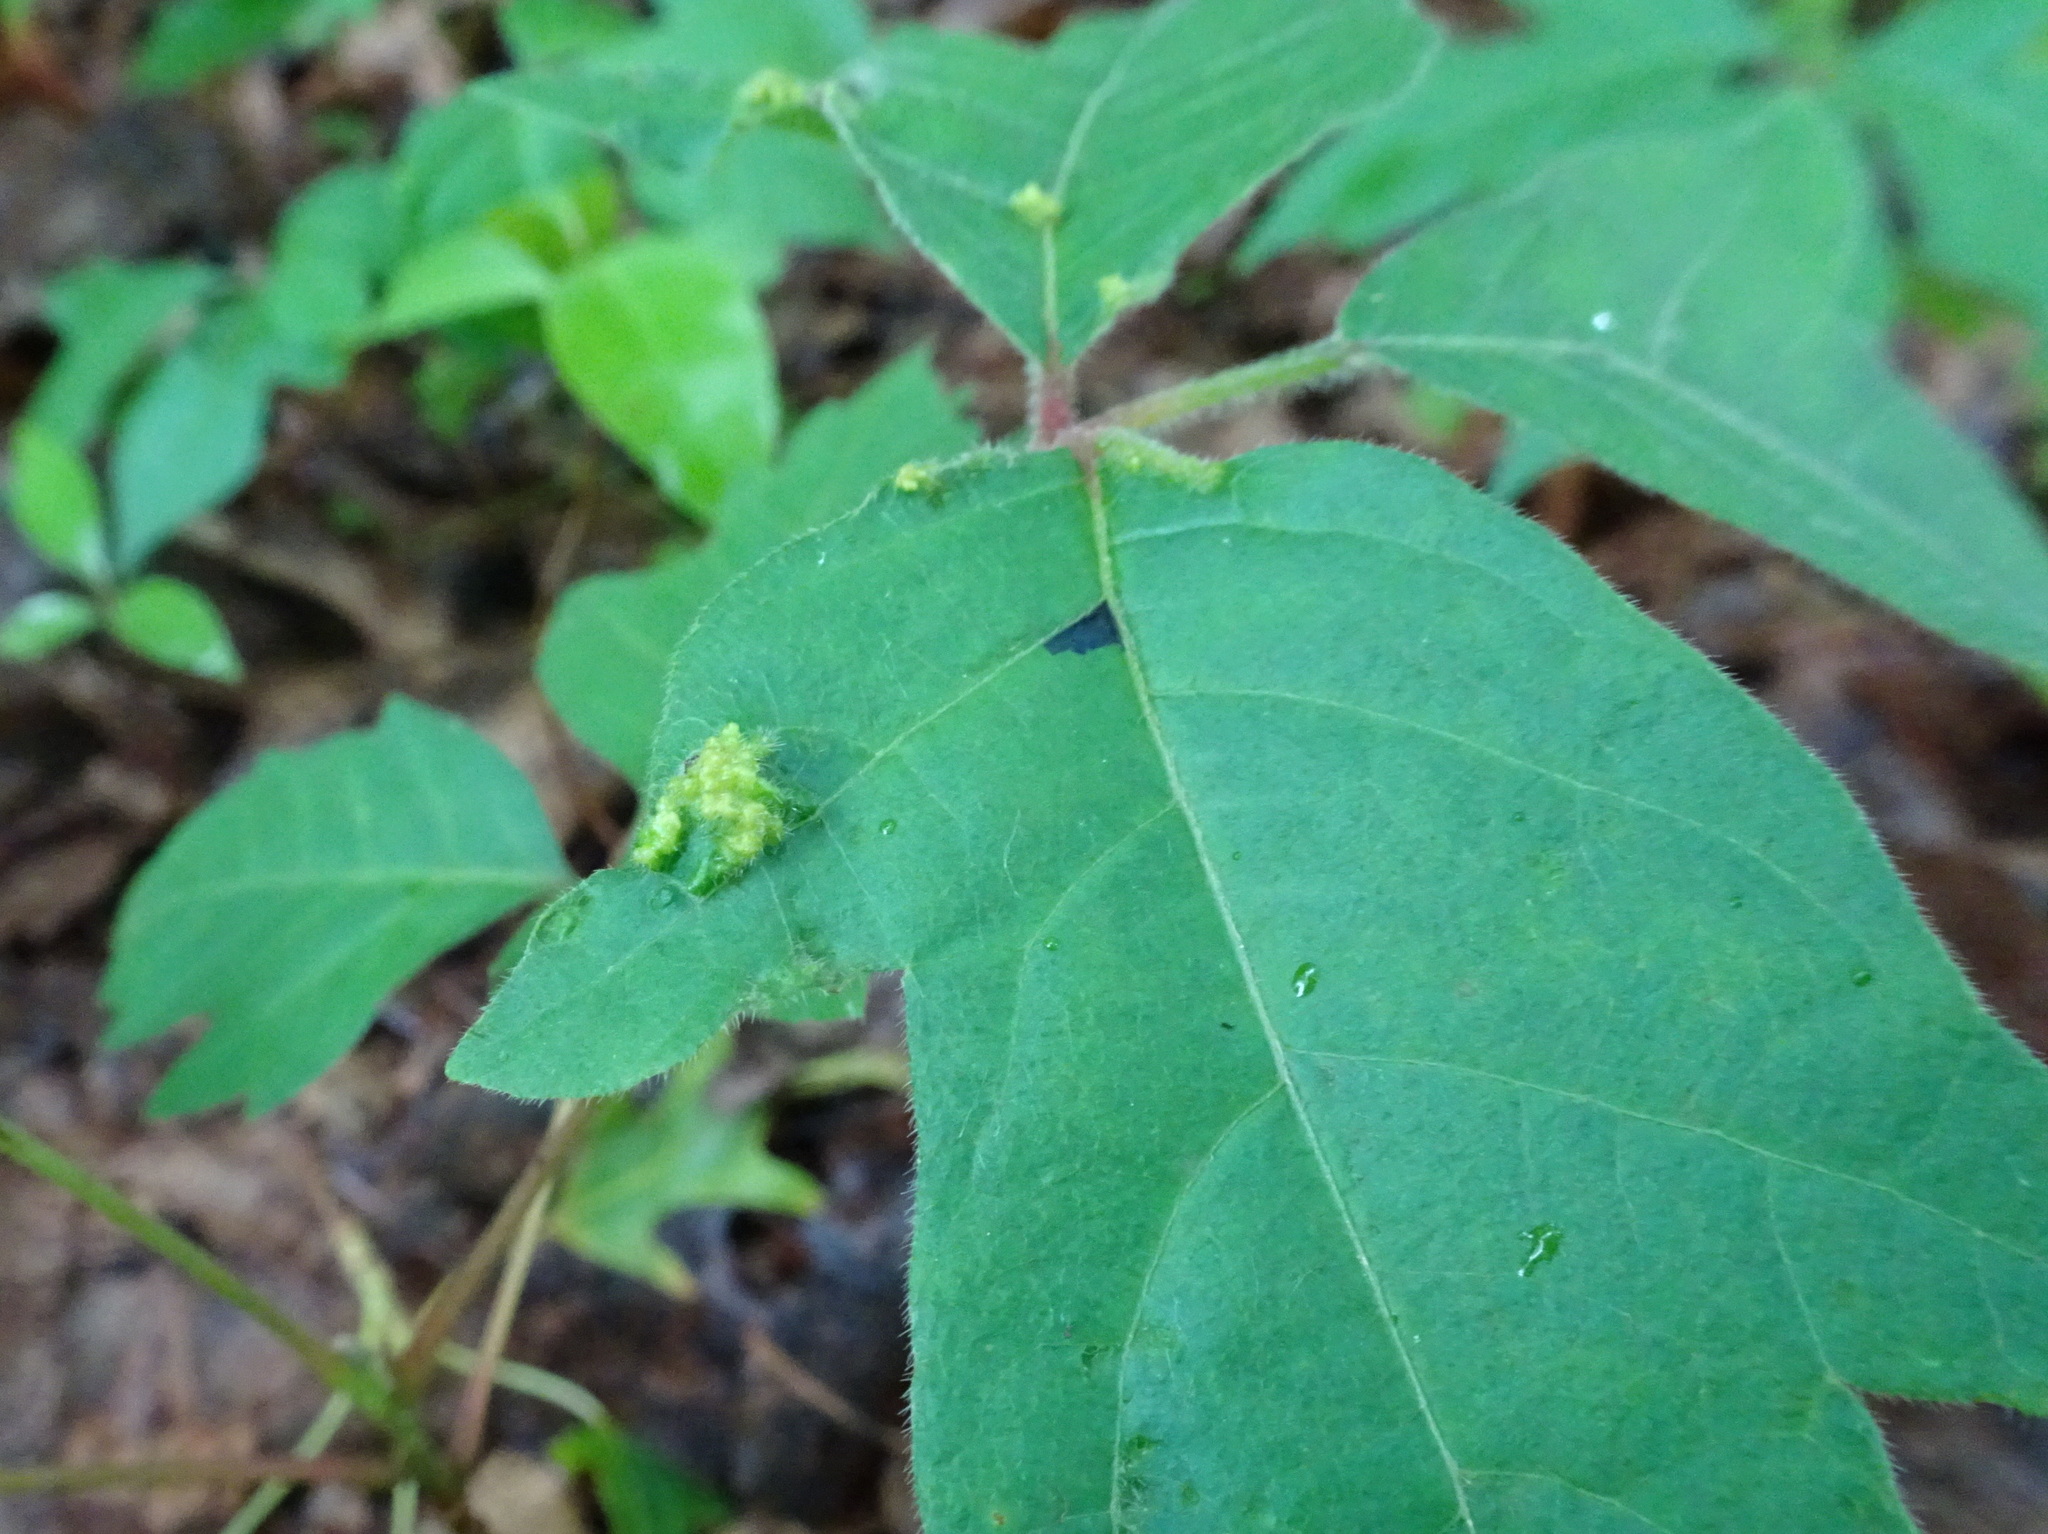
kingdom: Animalia
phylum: Arthropoda
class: Arachnida
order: Trombidiformes
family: Eriophyidae
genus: Aculops
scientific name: Aculops
